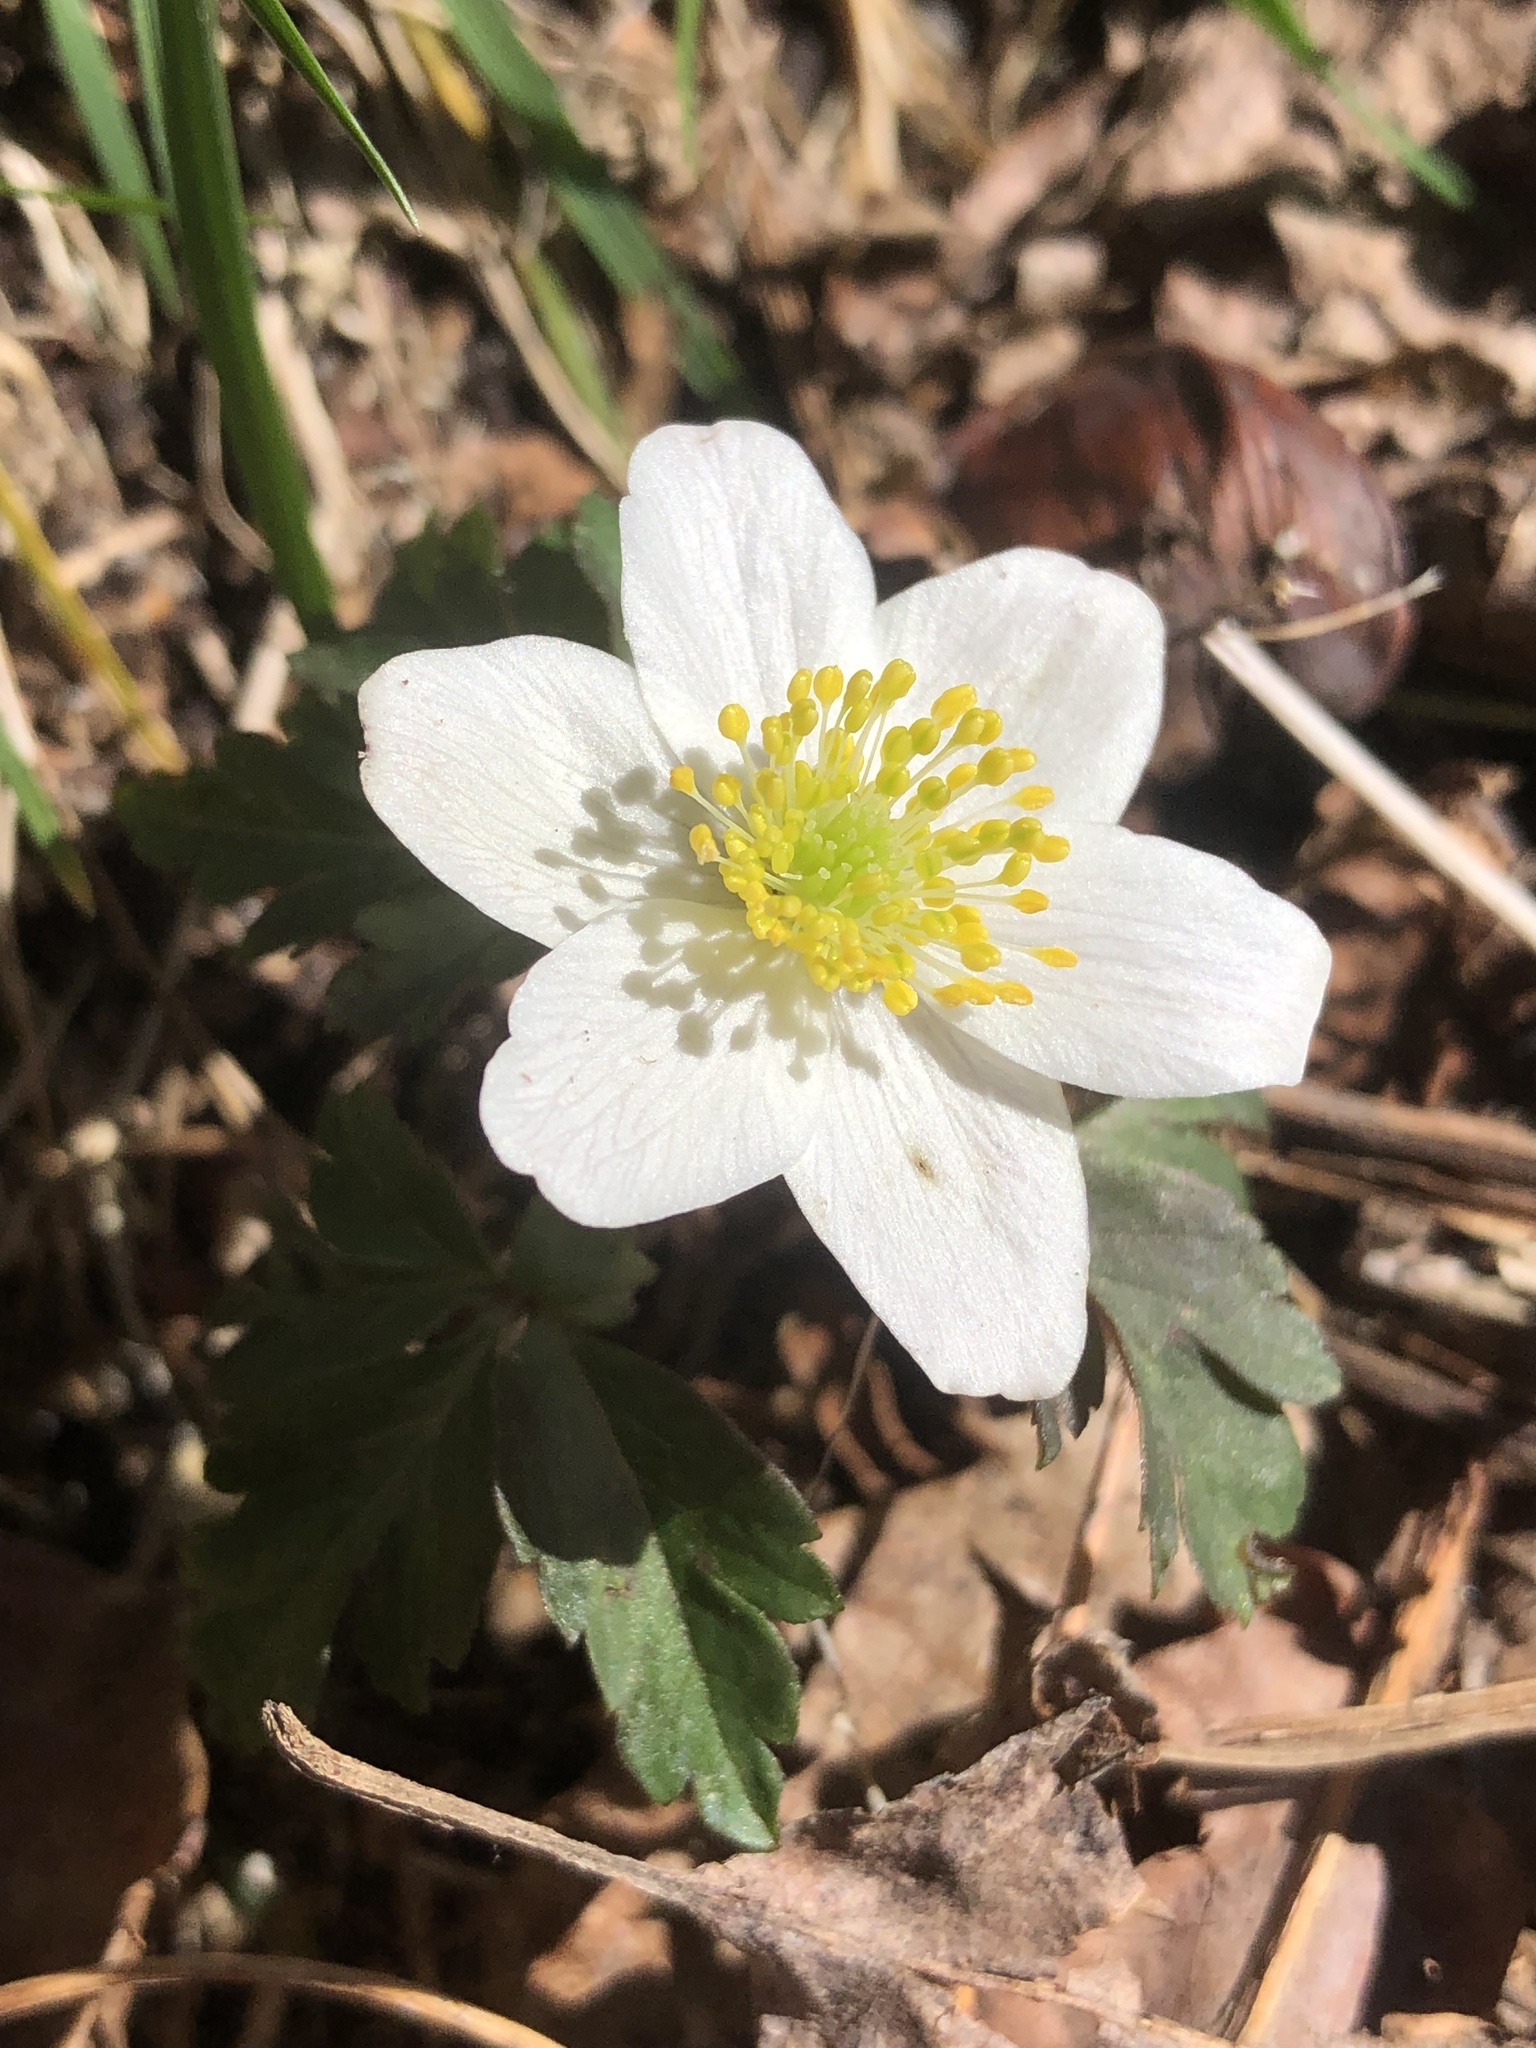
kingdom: Plantae
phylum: Tracheophyta
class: Magnoliopsida
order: Ranunculales
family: Ranunculaceae
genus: Anemone
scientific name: Anemone nemorosa
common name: Wood anemone
